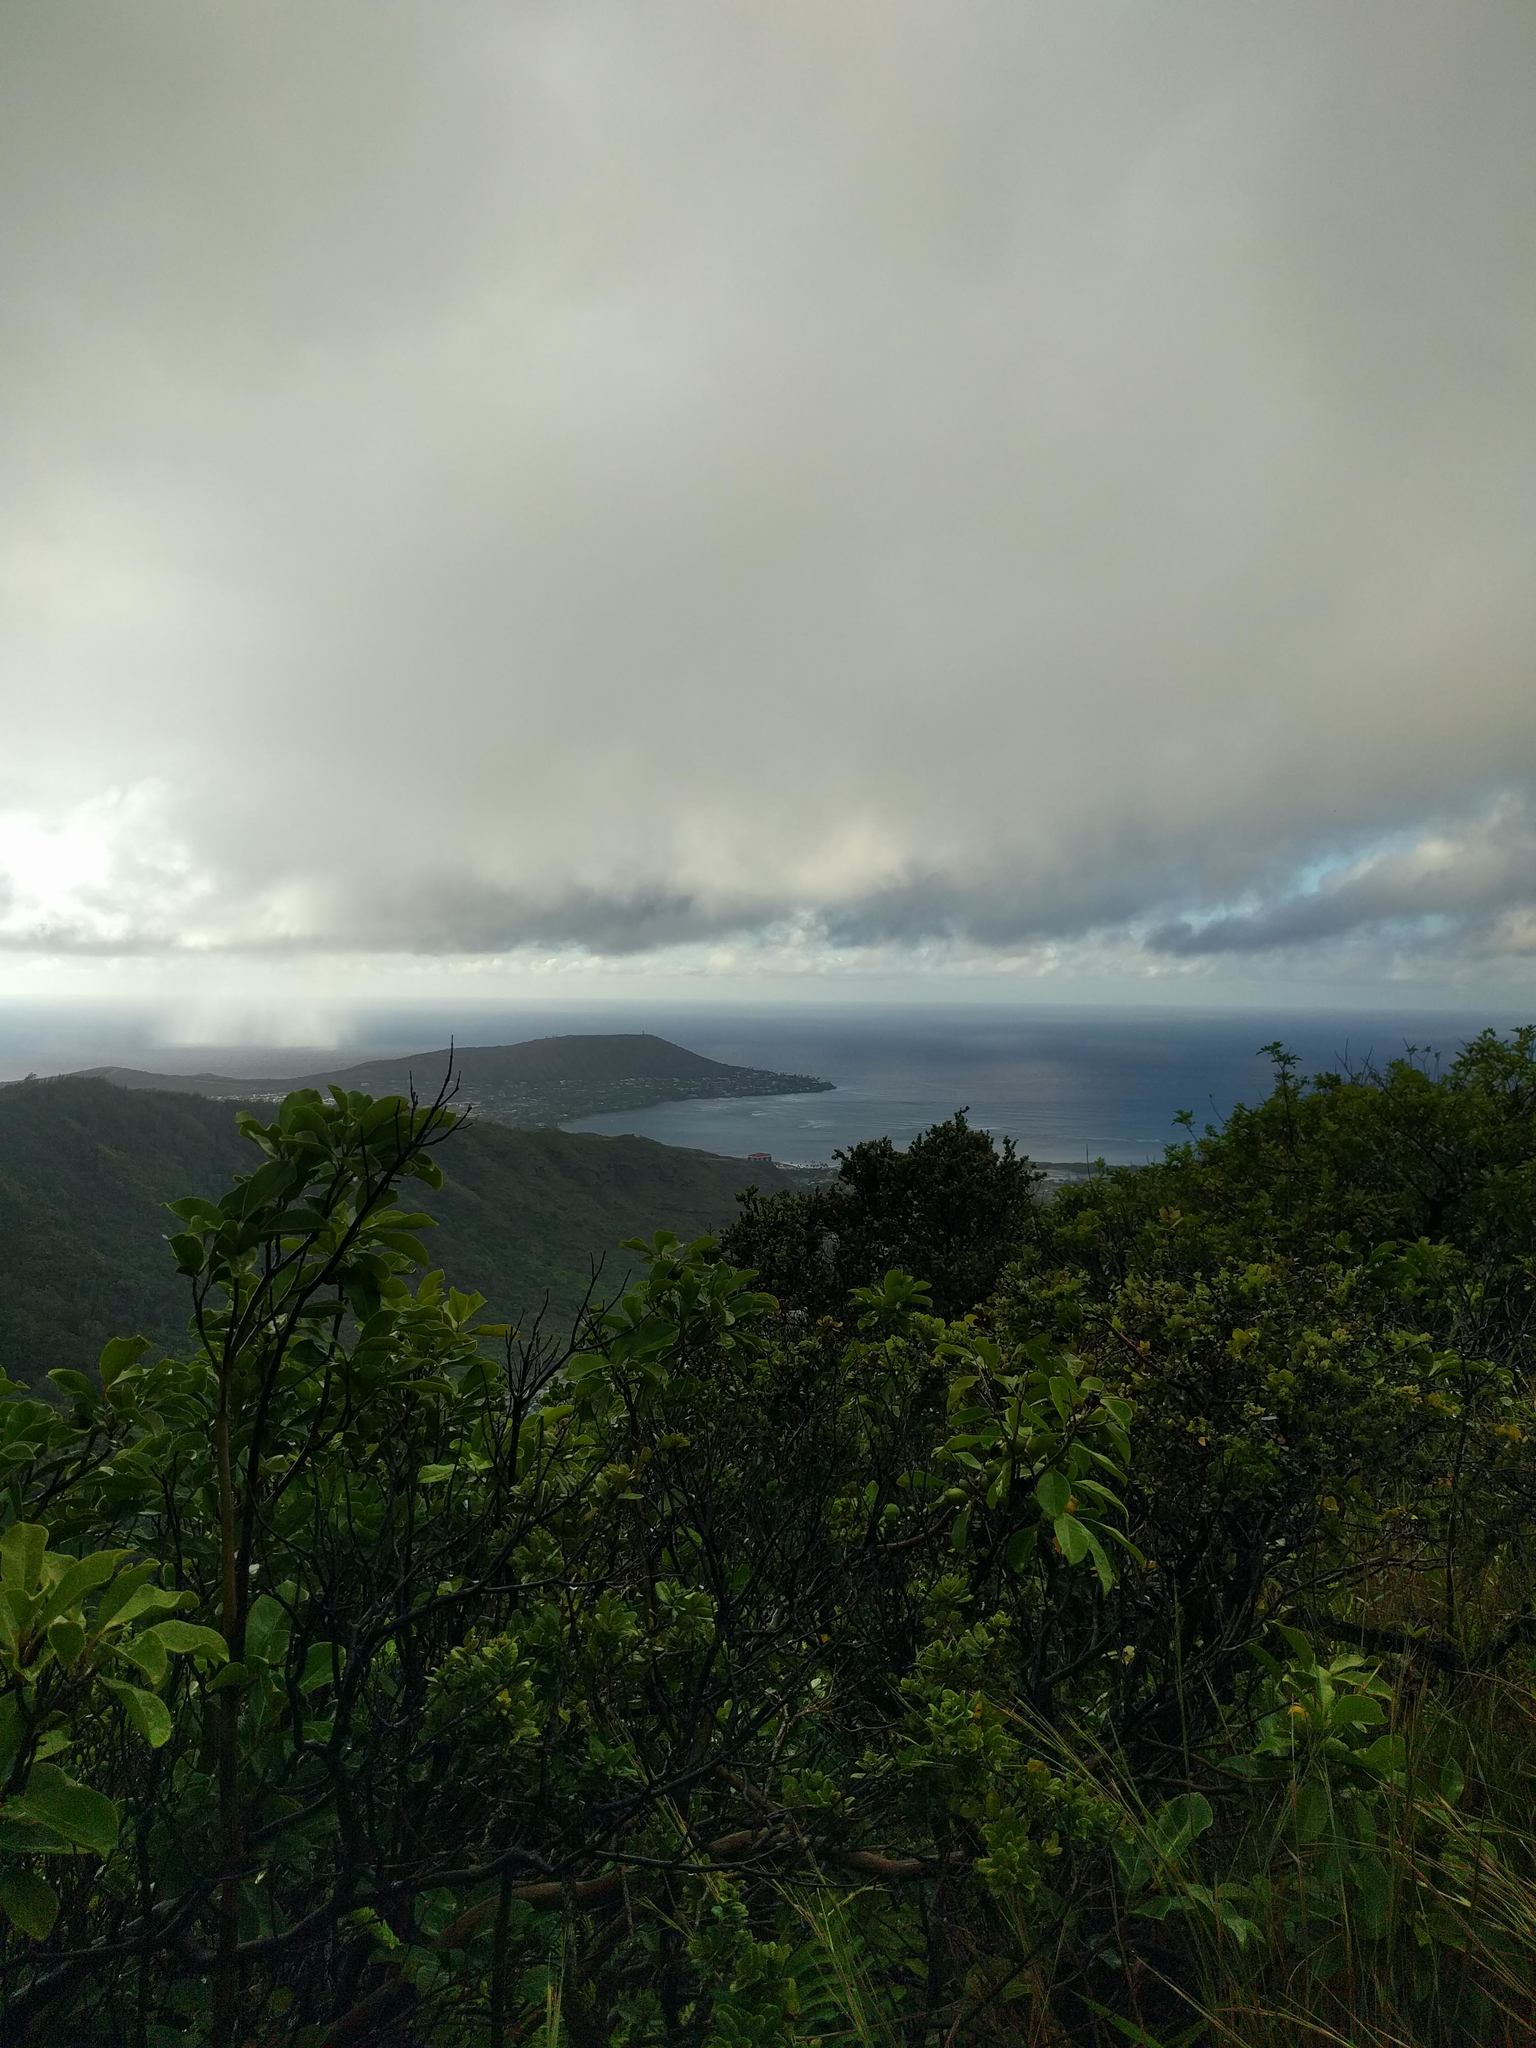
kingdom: Plantae
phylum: Tracheophyta
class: Magnoliopsida
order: Myrtales
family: Myrtaceae
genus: Psidium
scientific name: Psidium cattleianum
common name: Strawberry guava
